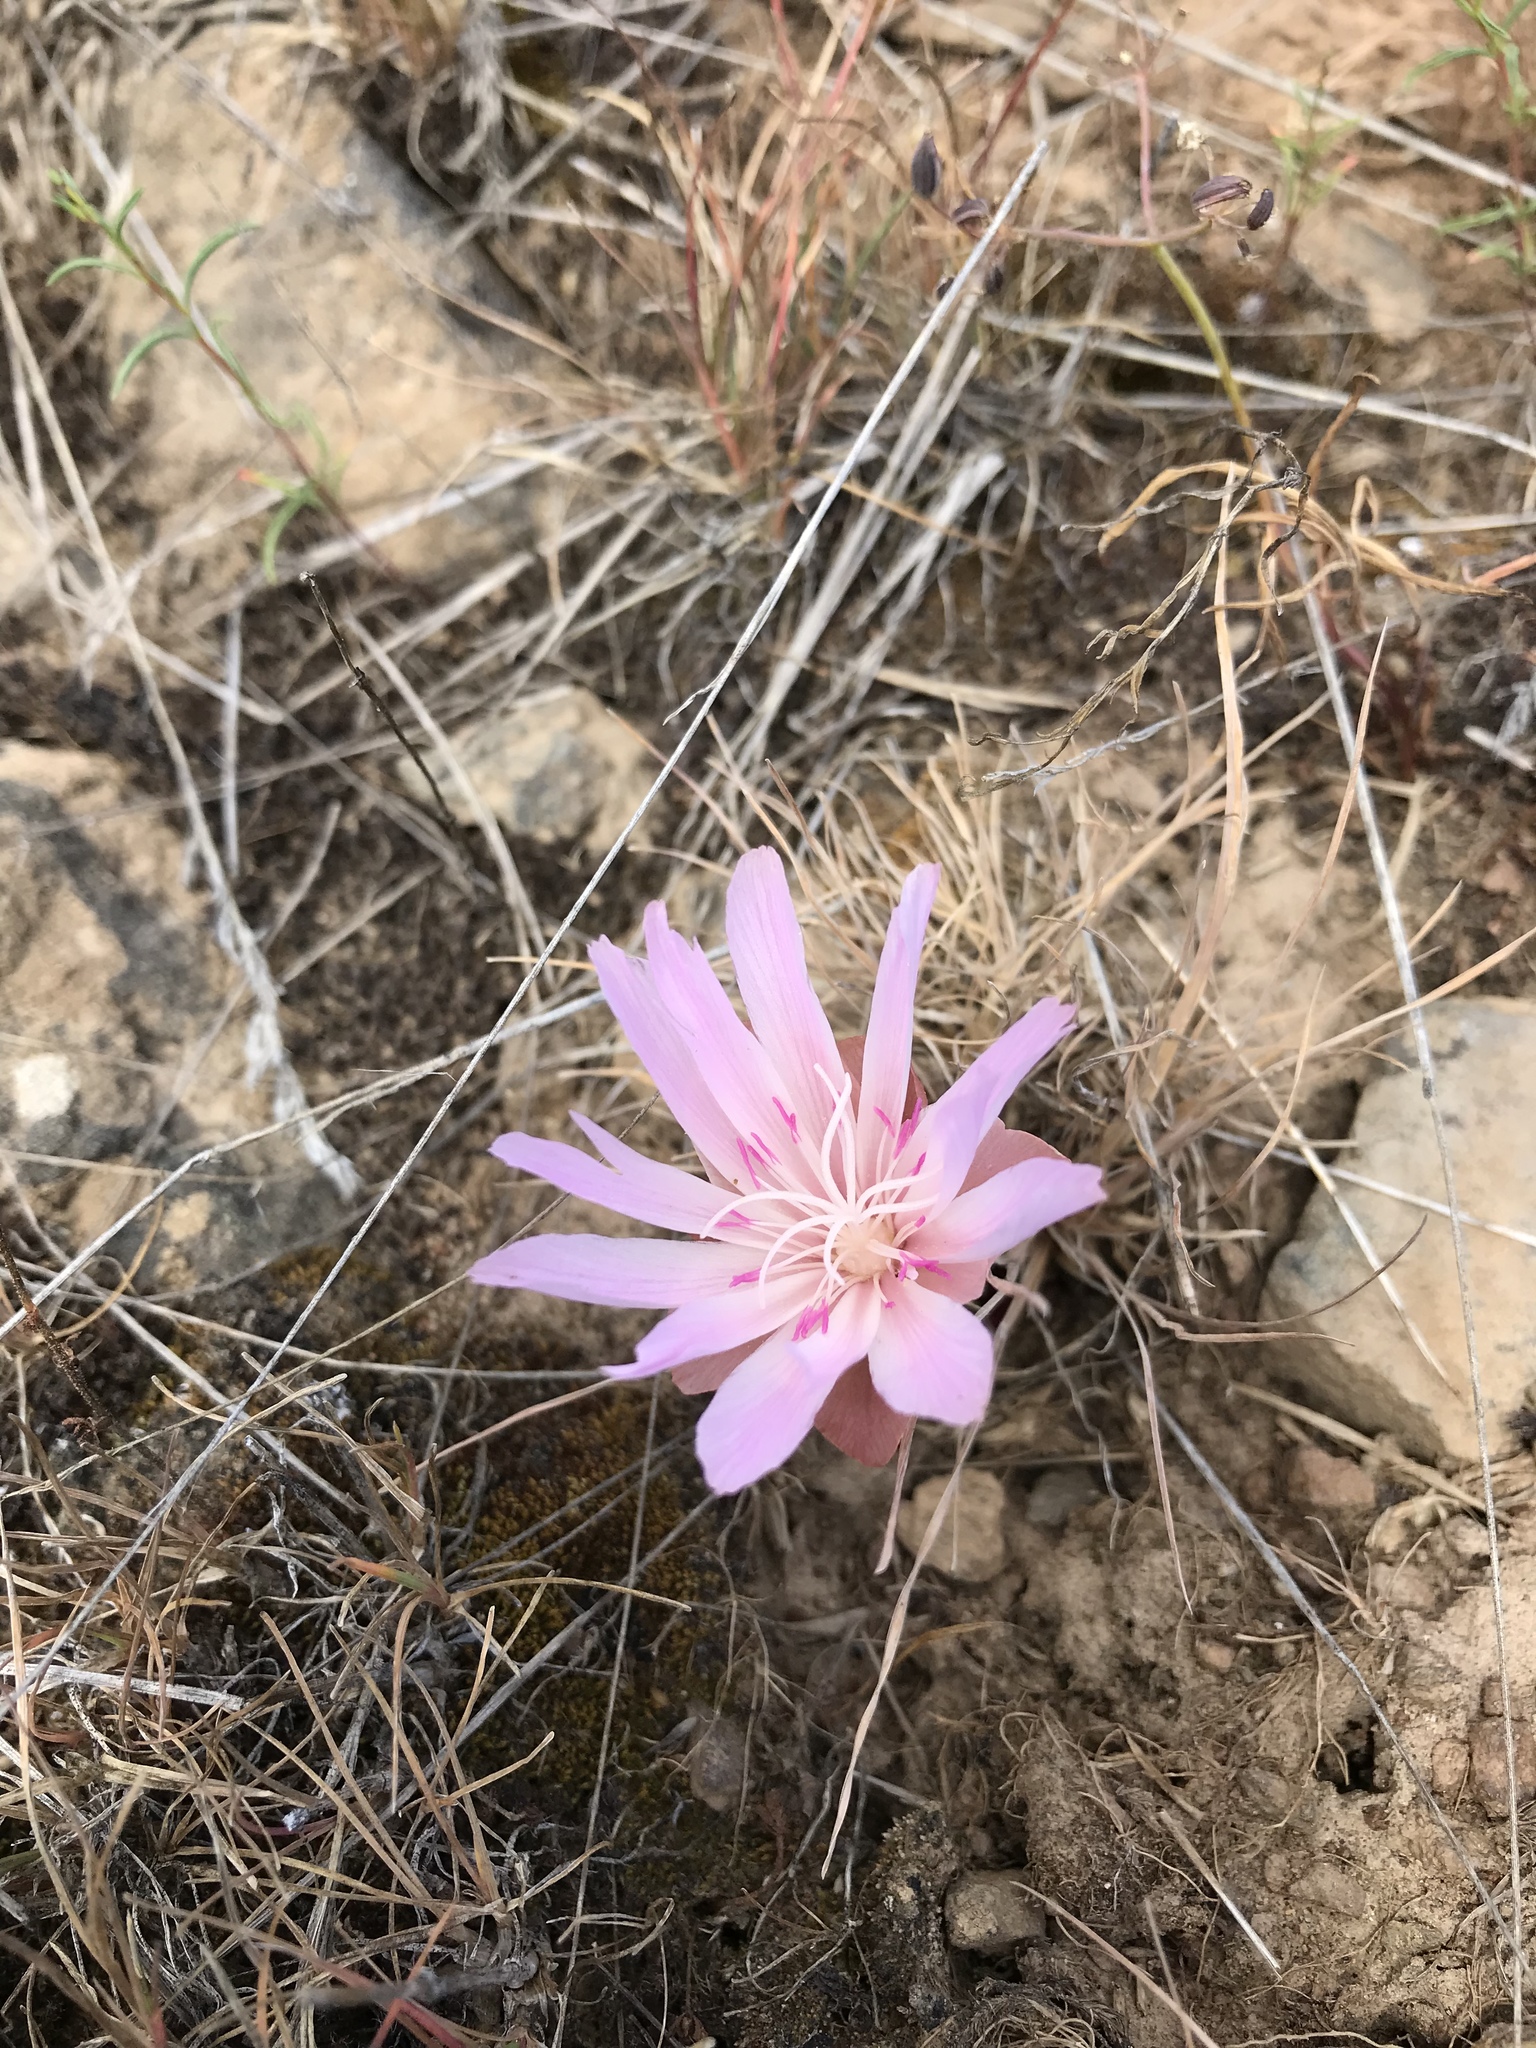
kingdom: Plantae
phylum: Tracheophyta
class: Magnoliopsida
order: Caryophyllales
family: Montiaceae
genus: Lewisia
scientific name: Lewisia rediviva
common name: Bitter-root
